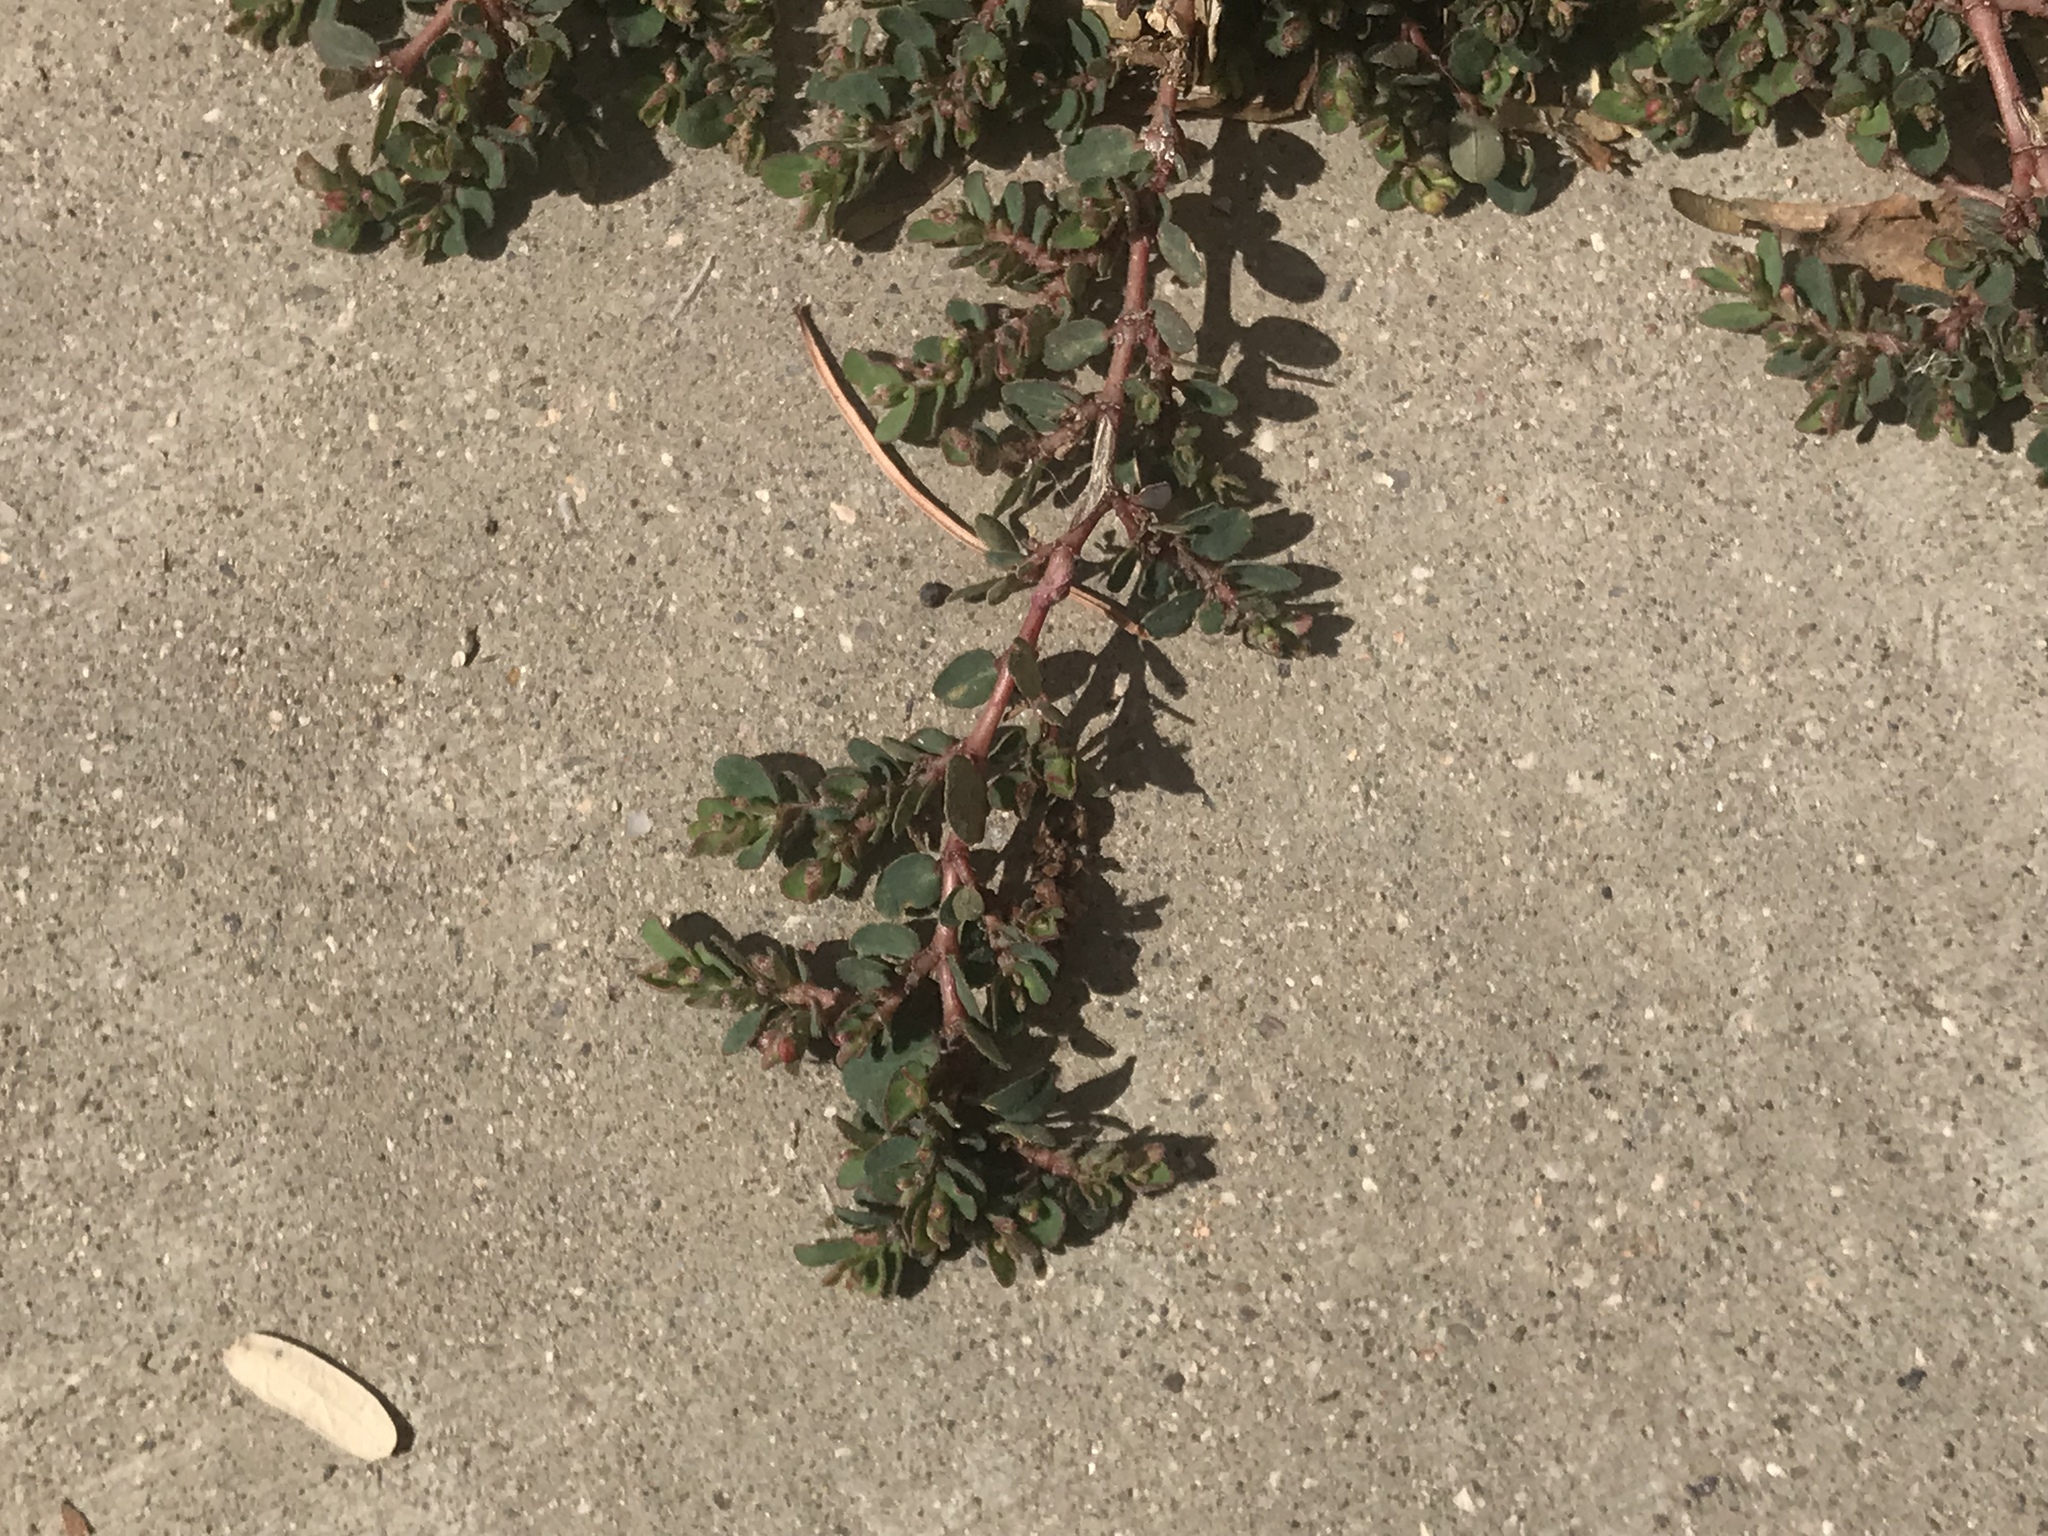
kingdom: Plantae
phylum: Tracheophyta
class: Magnoliopsida
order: Malpighiales
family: Euphorbiaceae
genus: Euphorbia
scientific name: Euphorbia prostrata
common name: Prostrate sandmat
